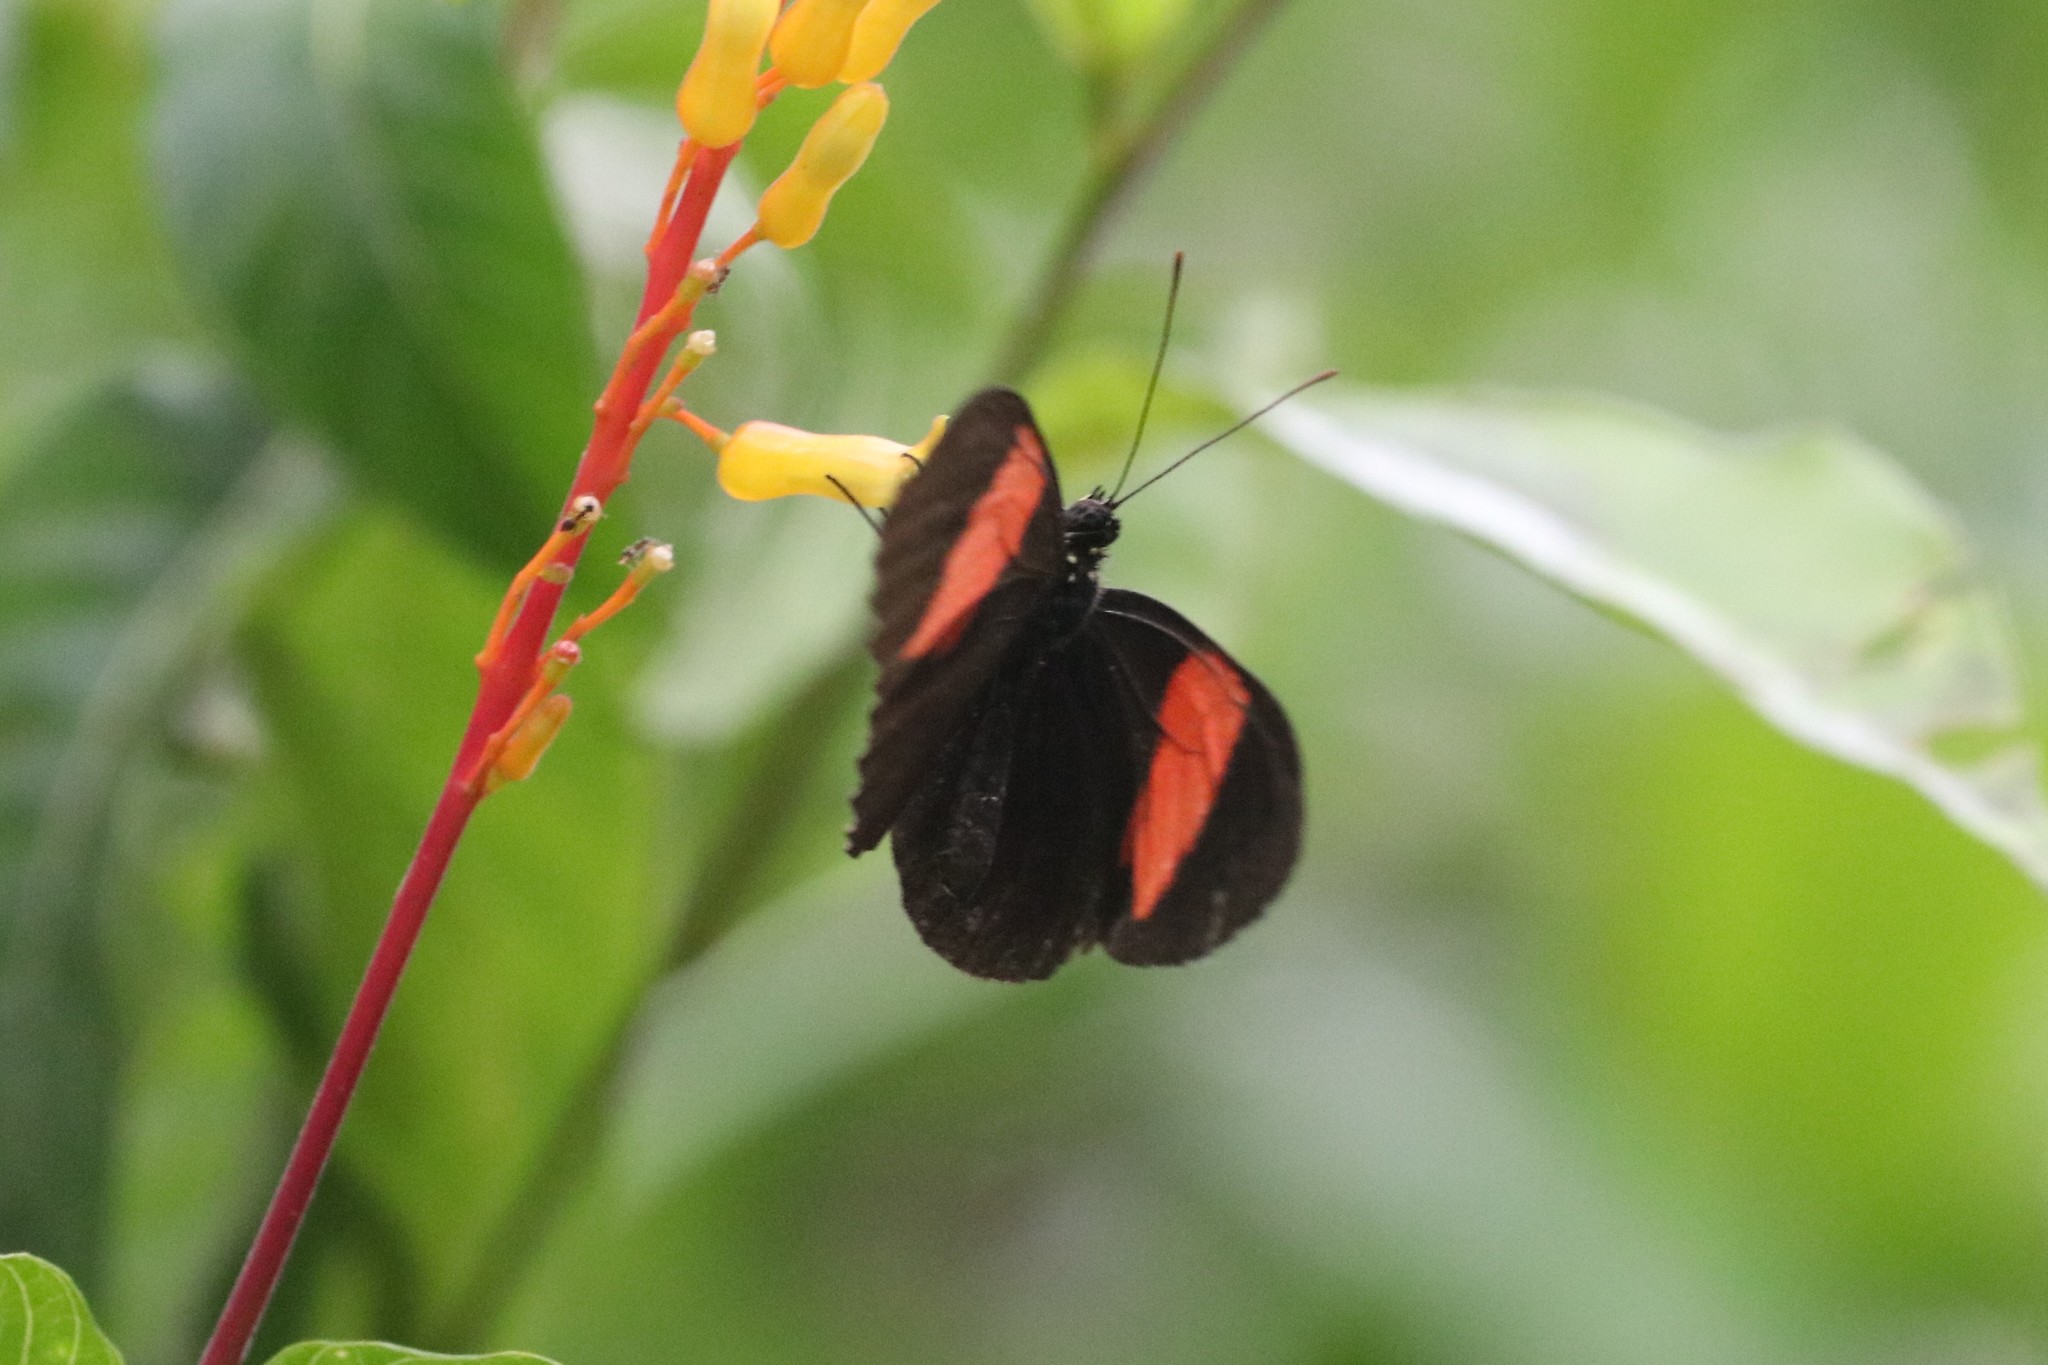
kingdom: Animalia
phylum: Arthropoda
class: Insecta
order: Lepidoptera
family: Nymphalidae
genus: Heliconius
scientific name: Heliconius erato
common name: Common patch longwing
